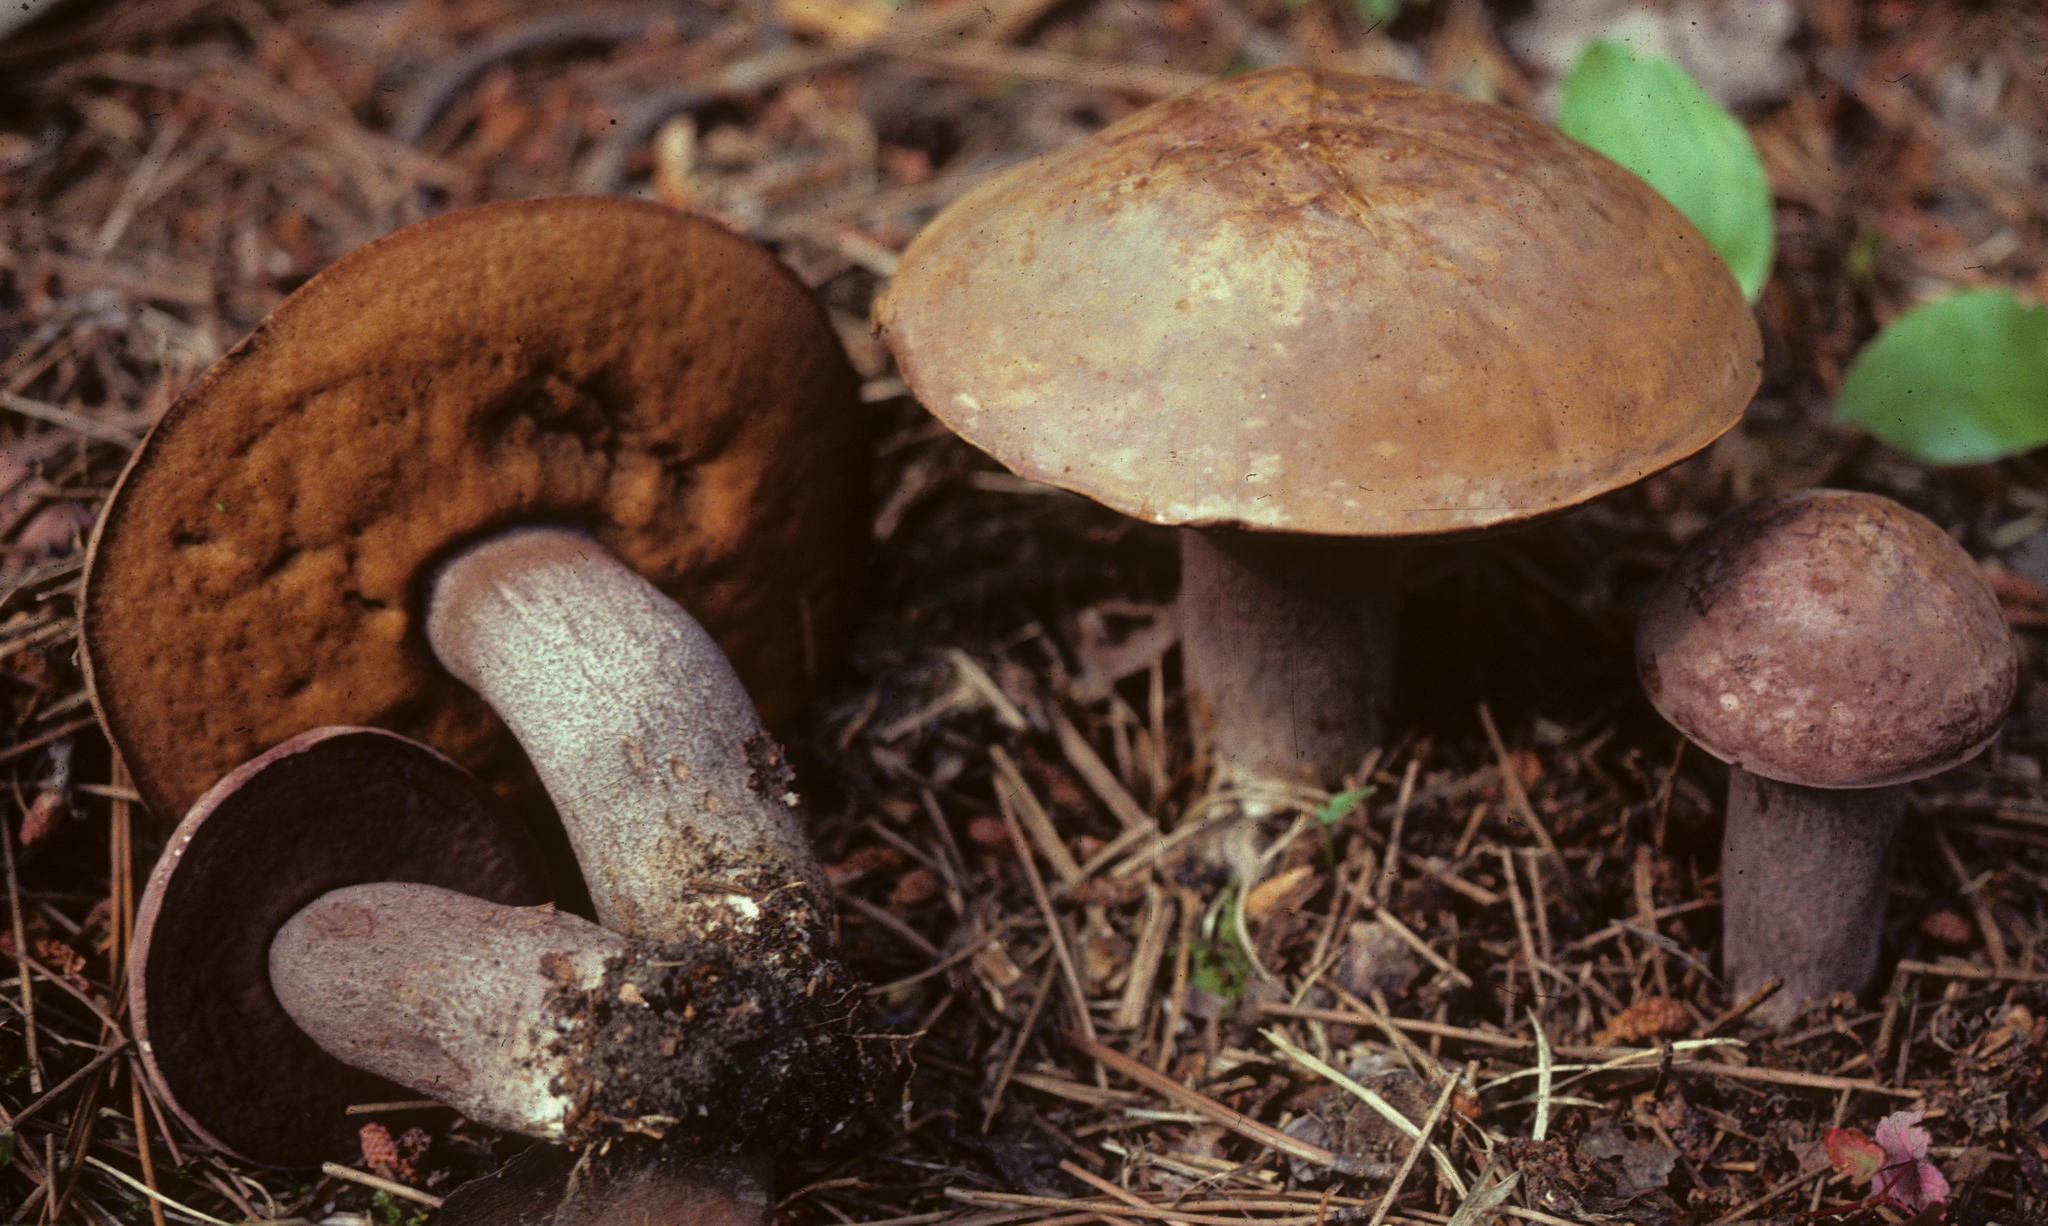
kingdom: Fungi
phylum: Basidiomycota
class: Agaricomycetes
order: Boletales
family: Boletaceae
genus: Sutorius
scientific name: Sutorius eximius
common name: Lilac-brown bolete
